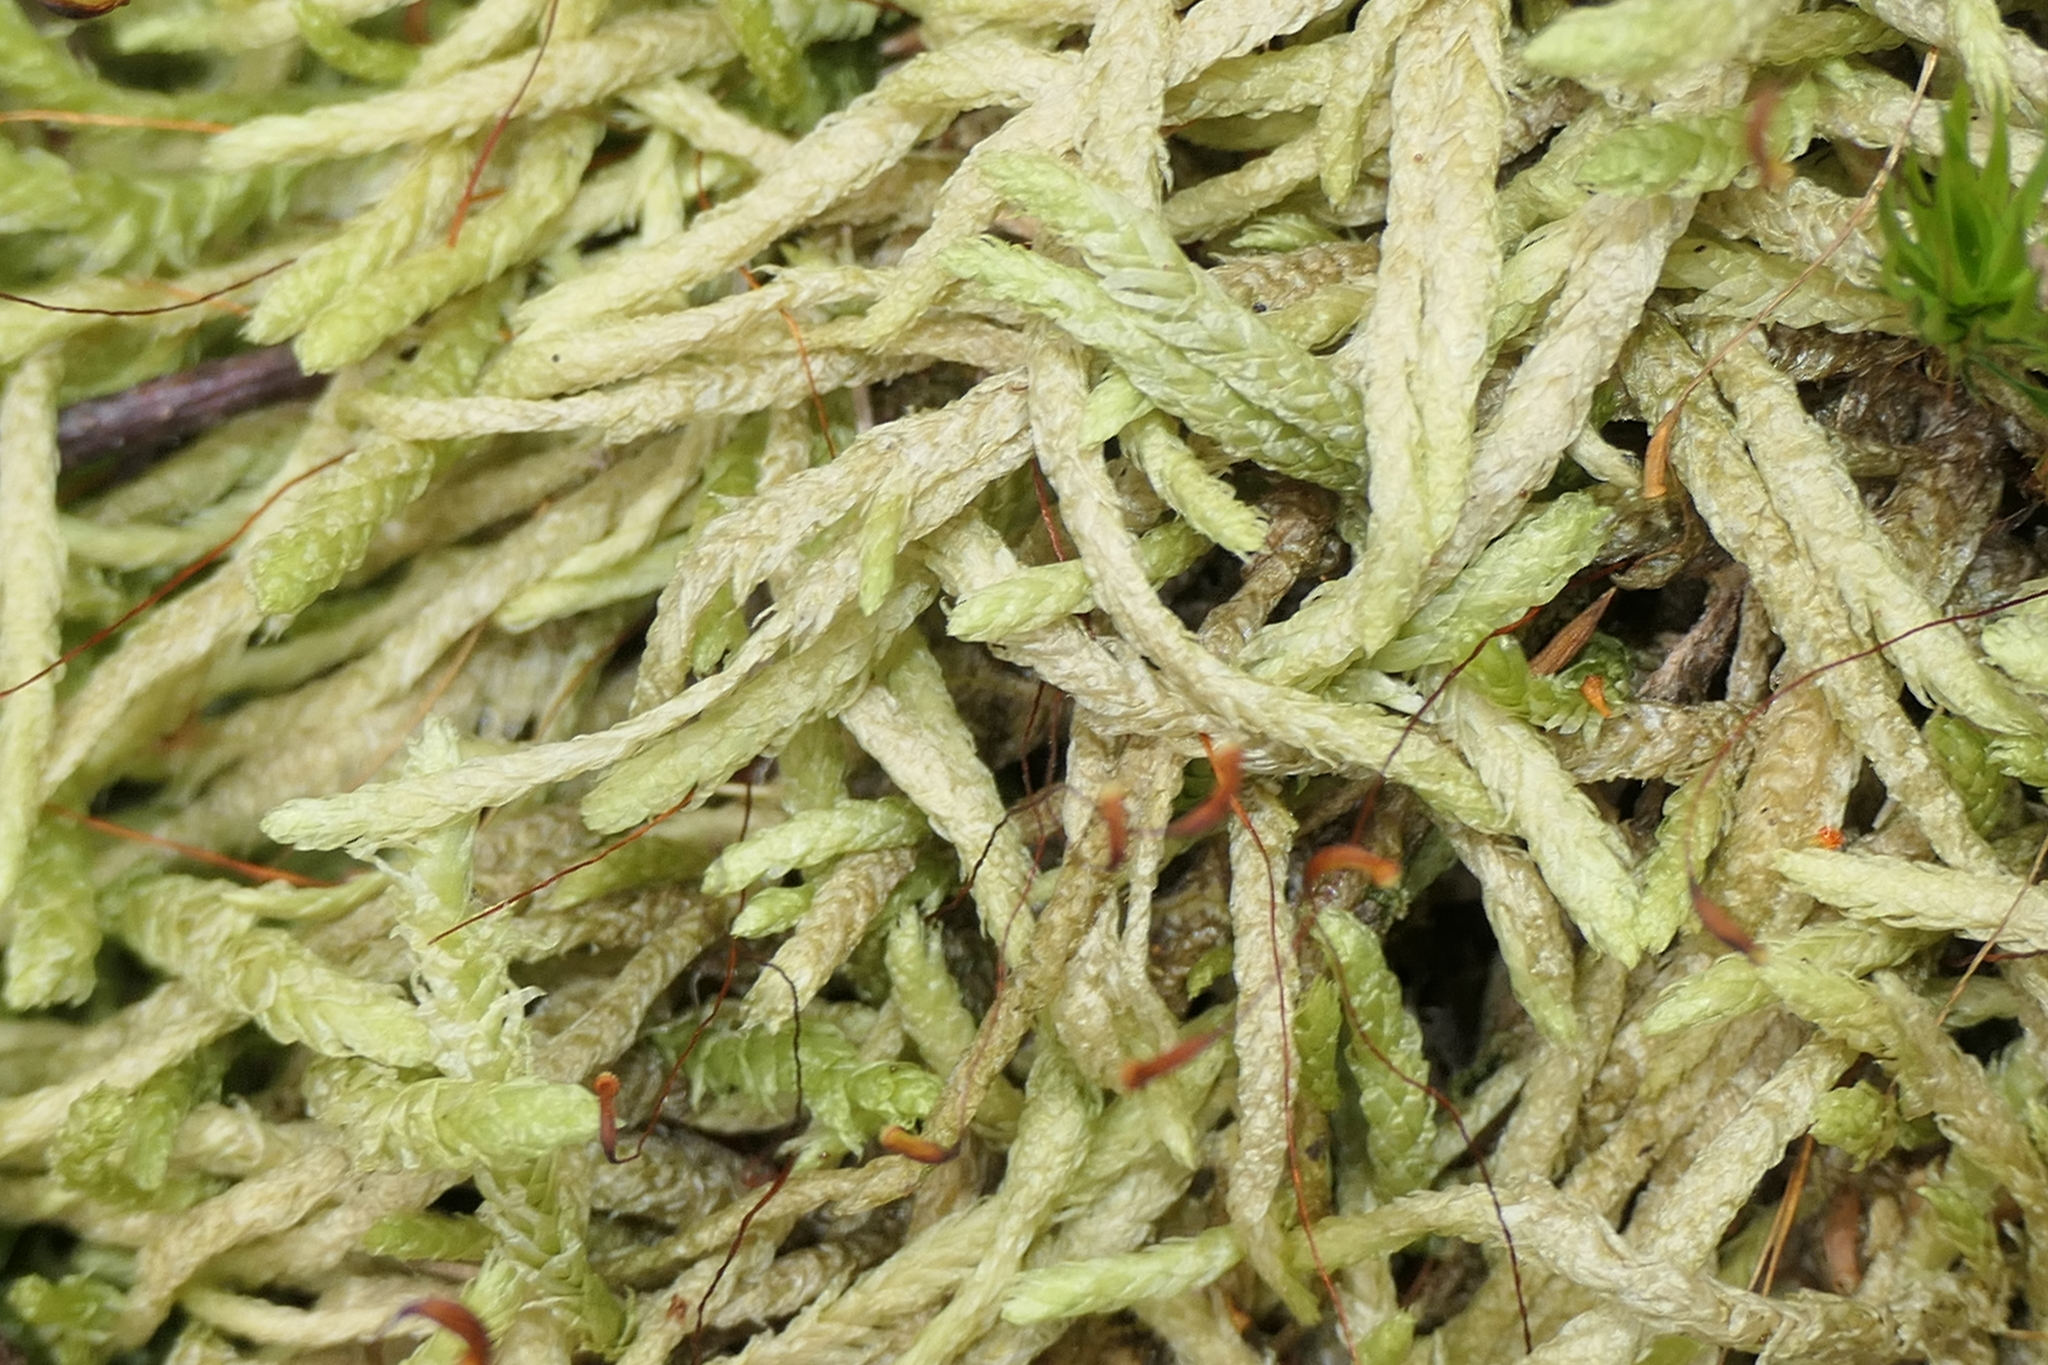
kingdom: Plantae
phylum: Bryophyta
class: Bryopsida
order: Hypnales
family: Plagiotheciaceae
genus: Plagiothecium
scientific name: Plagiothecium undulatum
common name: Waved silk-moss
